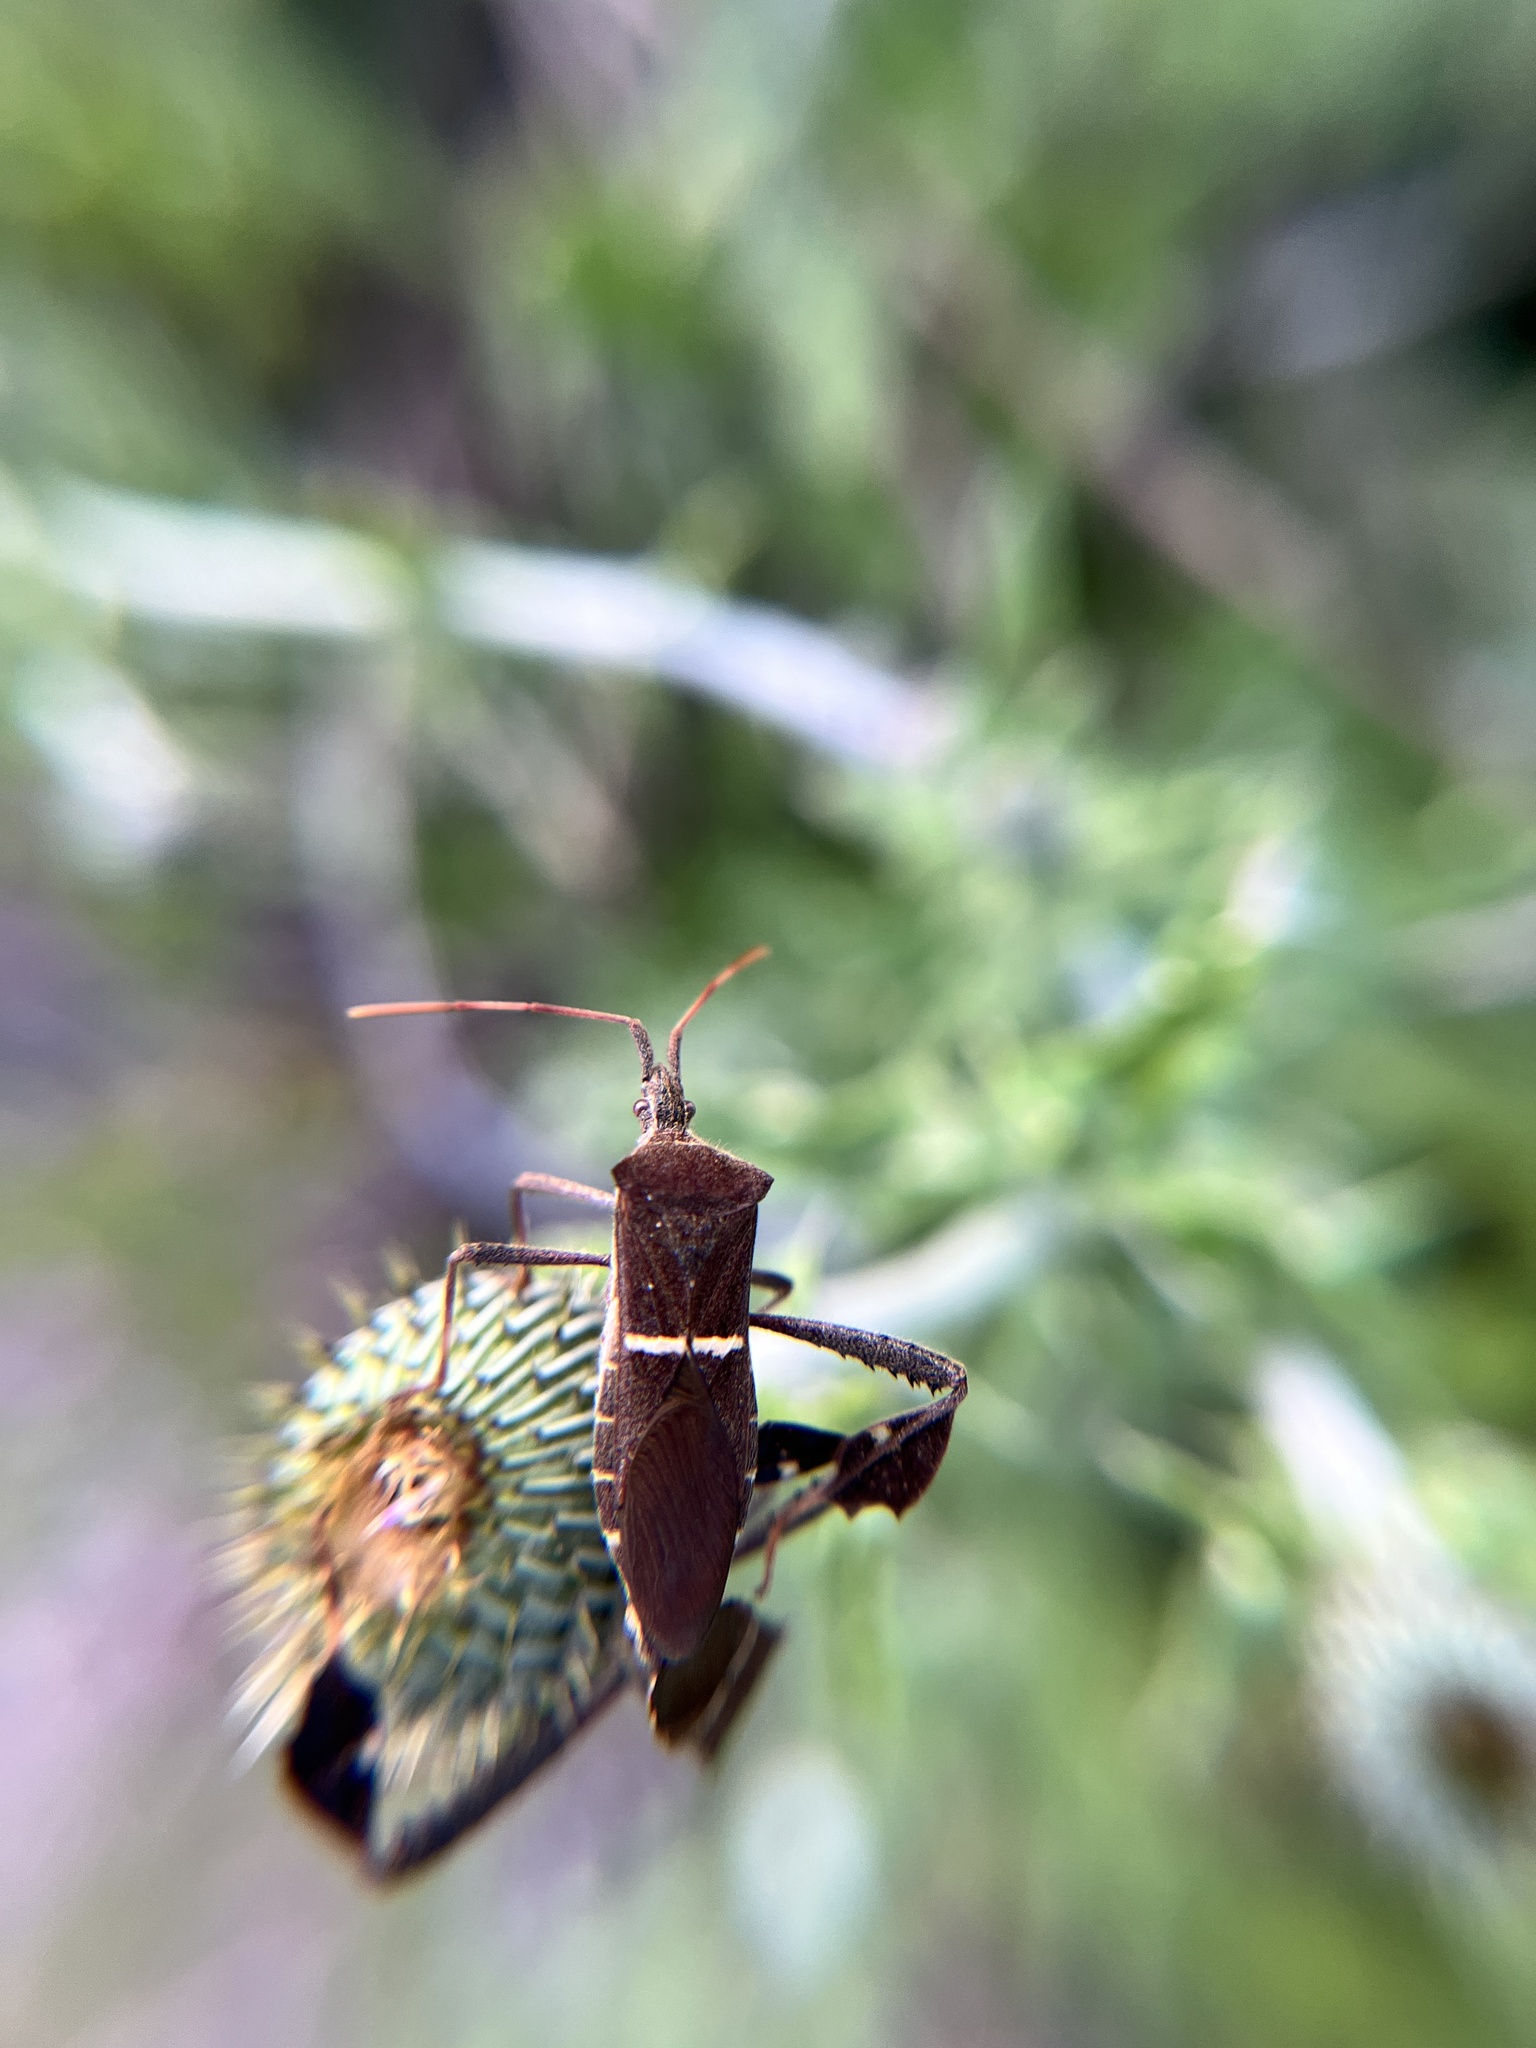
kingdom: Animalia
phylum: Arthropoda
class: Insecta
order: Hemiptera
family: Coreidae
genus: Leptoglossus
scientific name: Leptoglossus phyllopus
